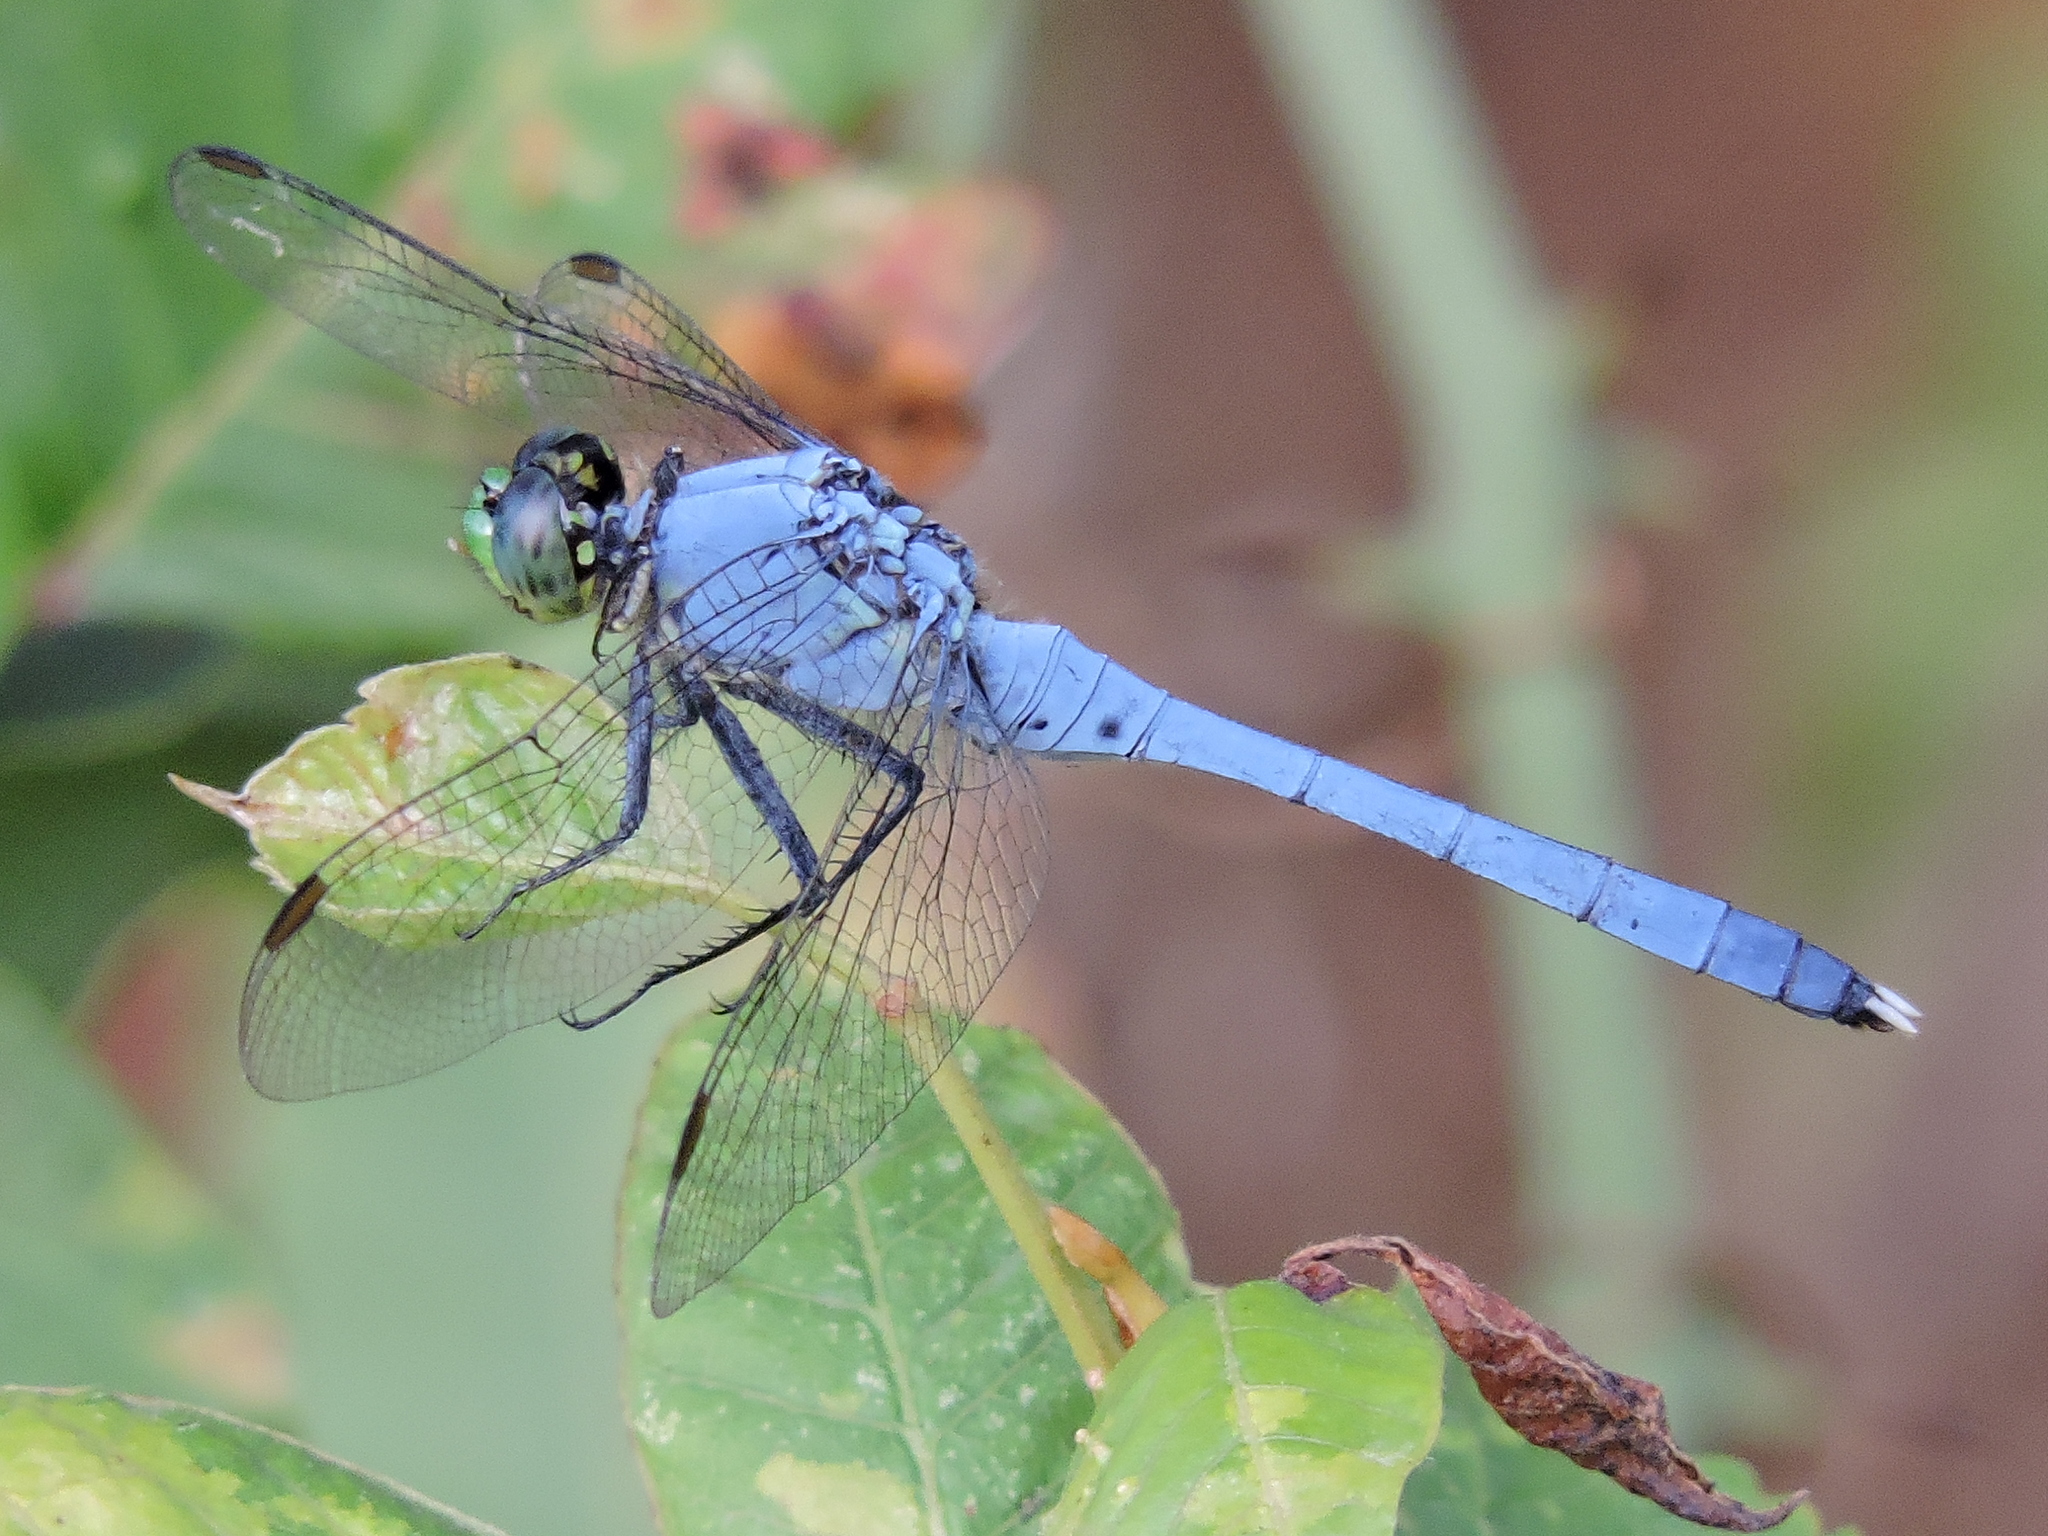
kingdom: Animalia
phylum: Arthropoda
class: Insecta
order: Odonata
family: Libellulidae
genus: Erythemis
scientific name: Erythemis simplicicollis
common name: Eastern pondhawk
